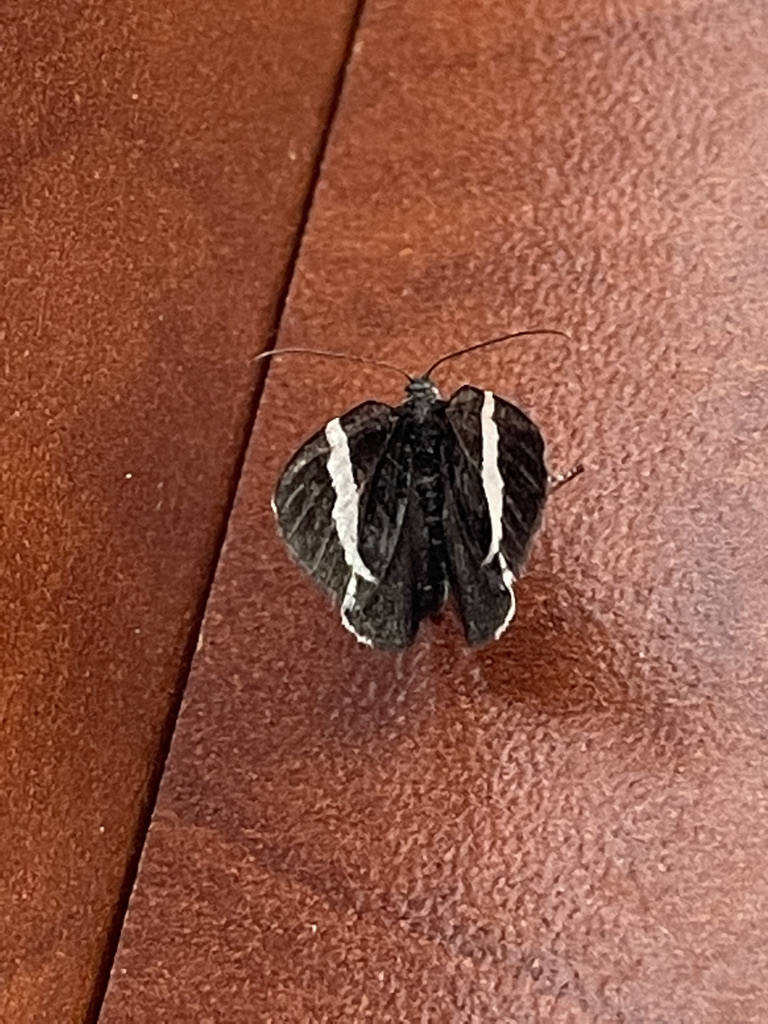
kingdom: Animalia
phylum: Arthropoda
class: Insecta
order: Lepidoptera
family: Geometridae
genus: Trichodezia
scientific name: Trichodezia albovittata
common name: White striped black
